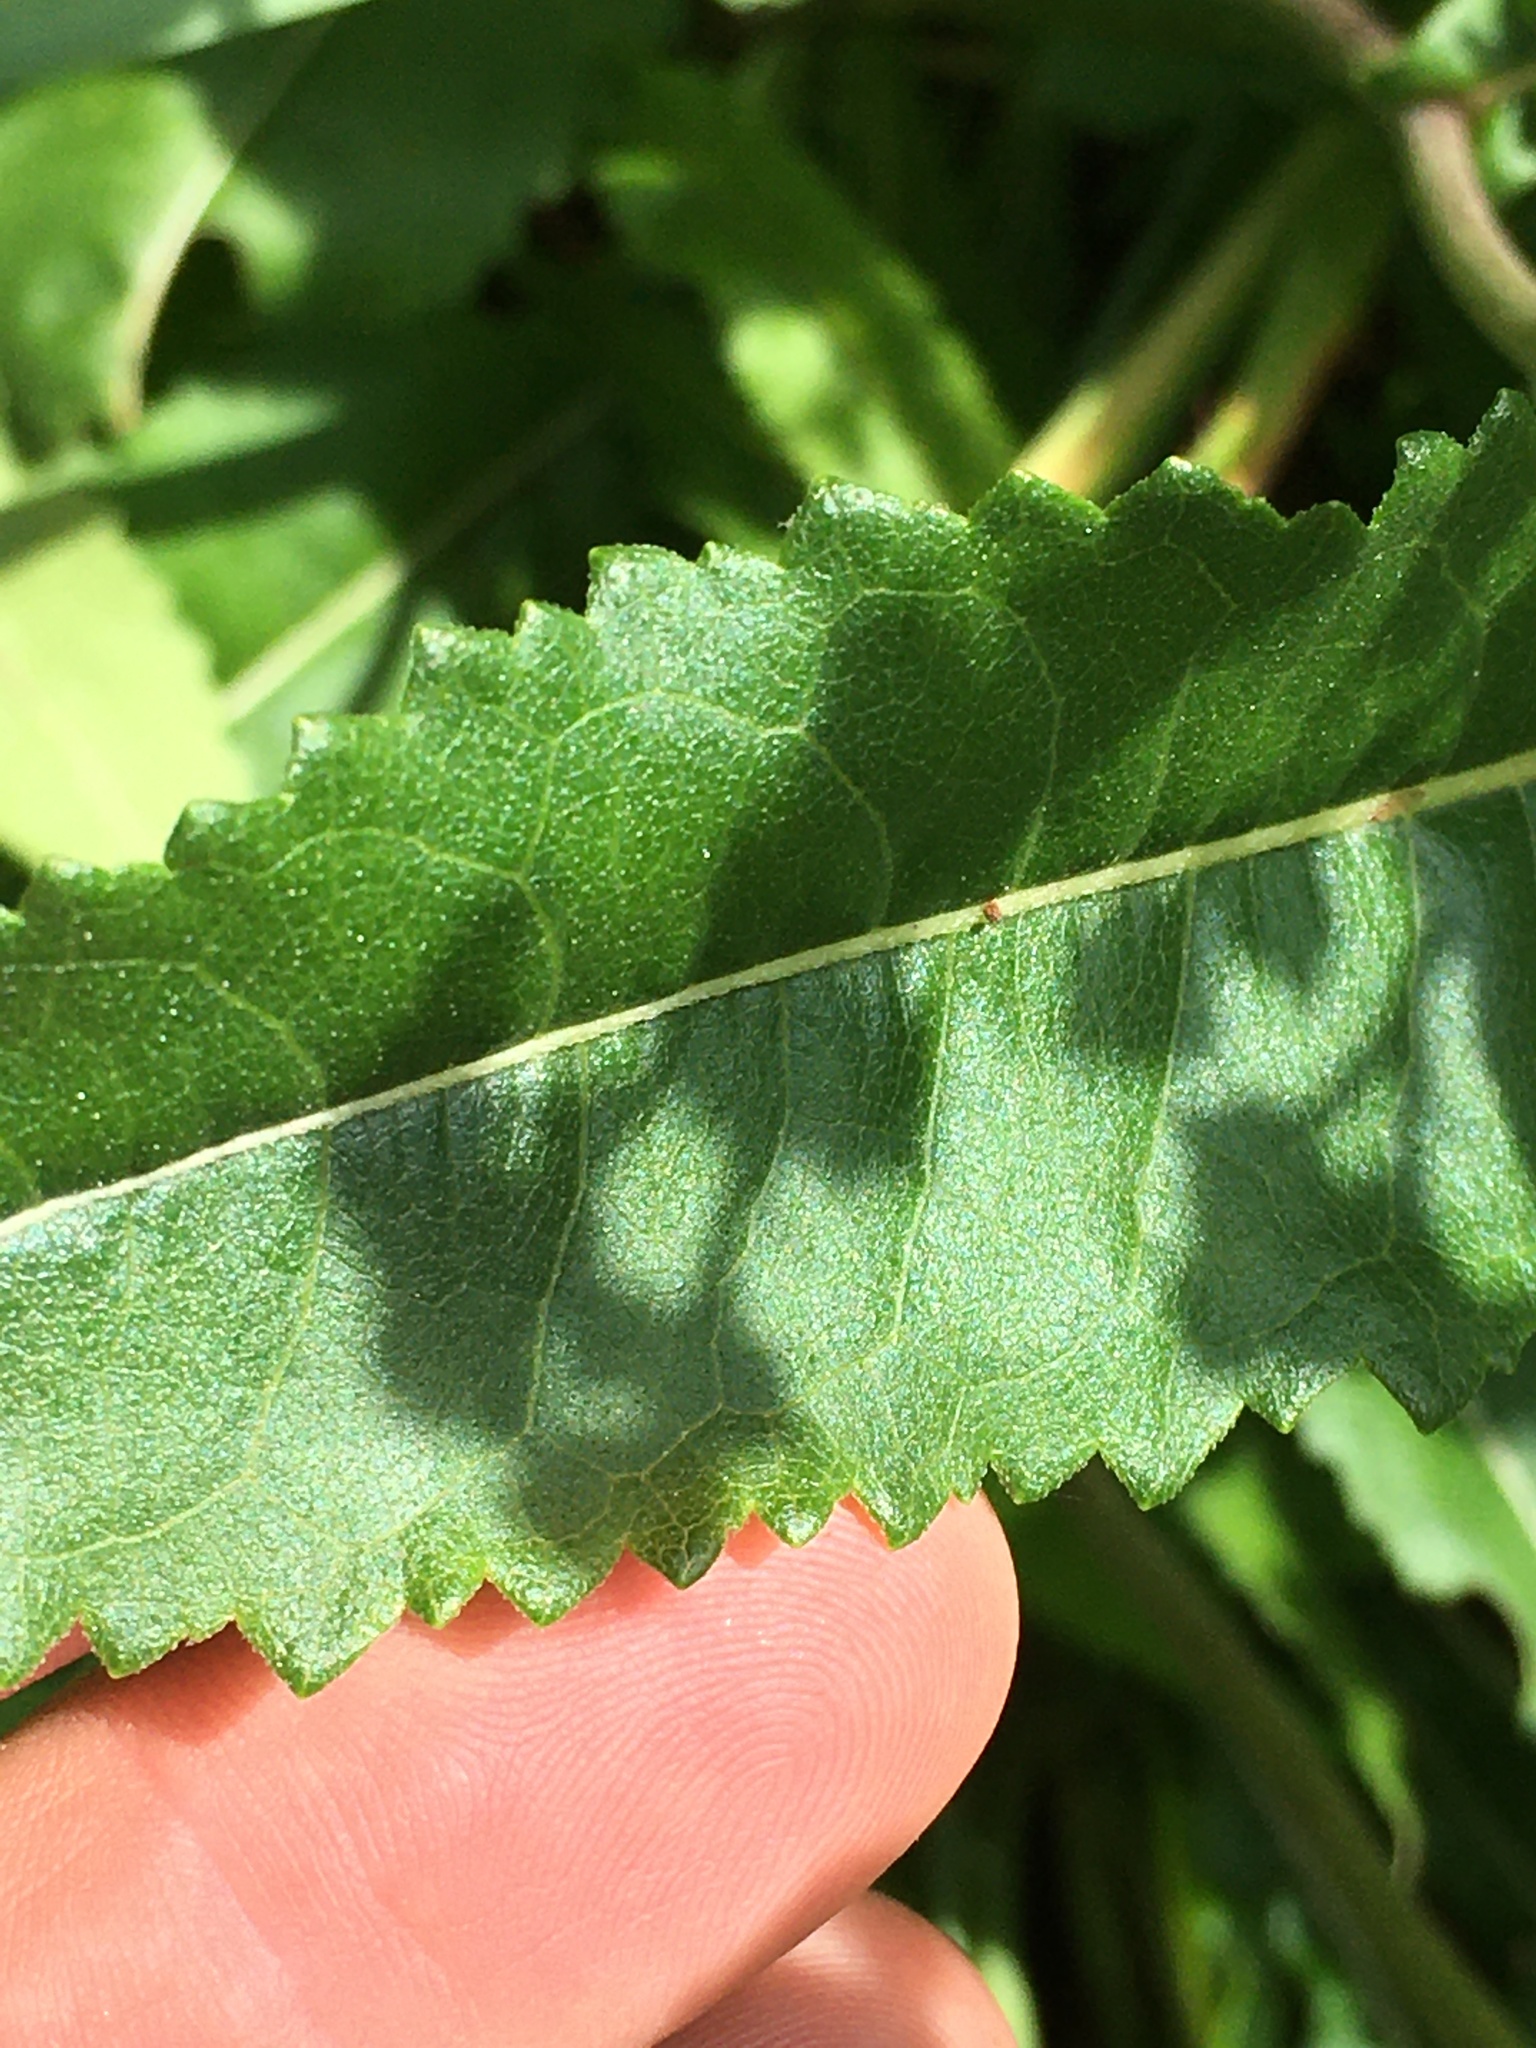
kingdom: Plantae
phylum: Tracheophyta
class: Magnoliopsida
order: Asterales
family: Asteraceae
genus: Parthenium
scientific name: Parthenium integrifolium
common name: American feverfew
